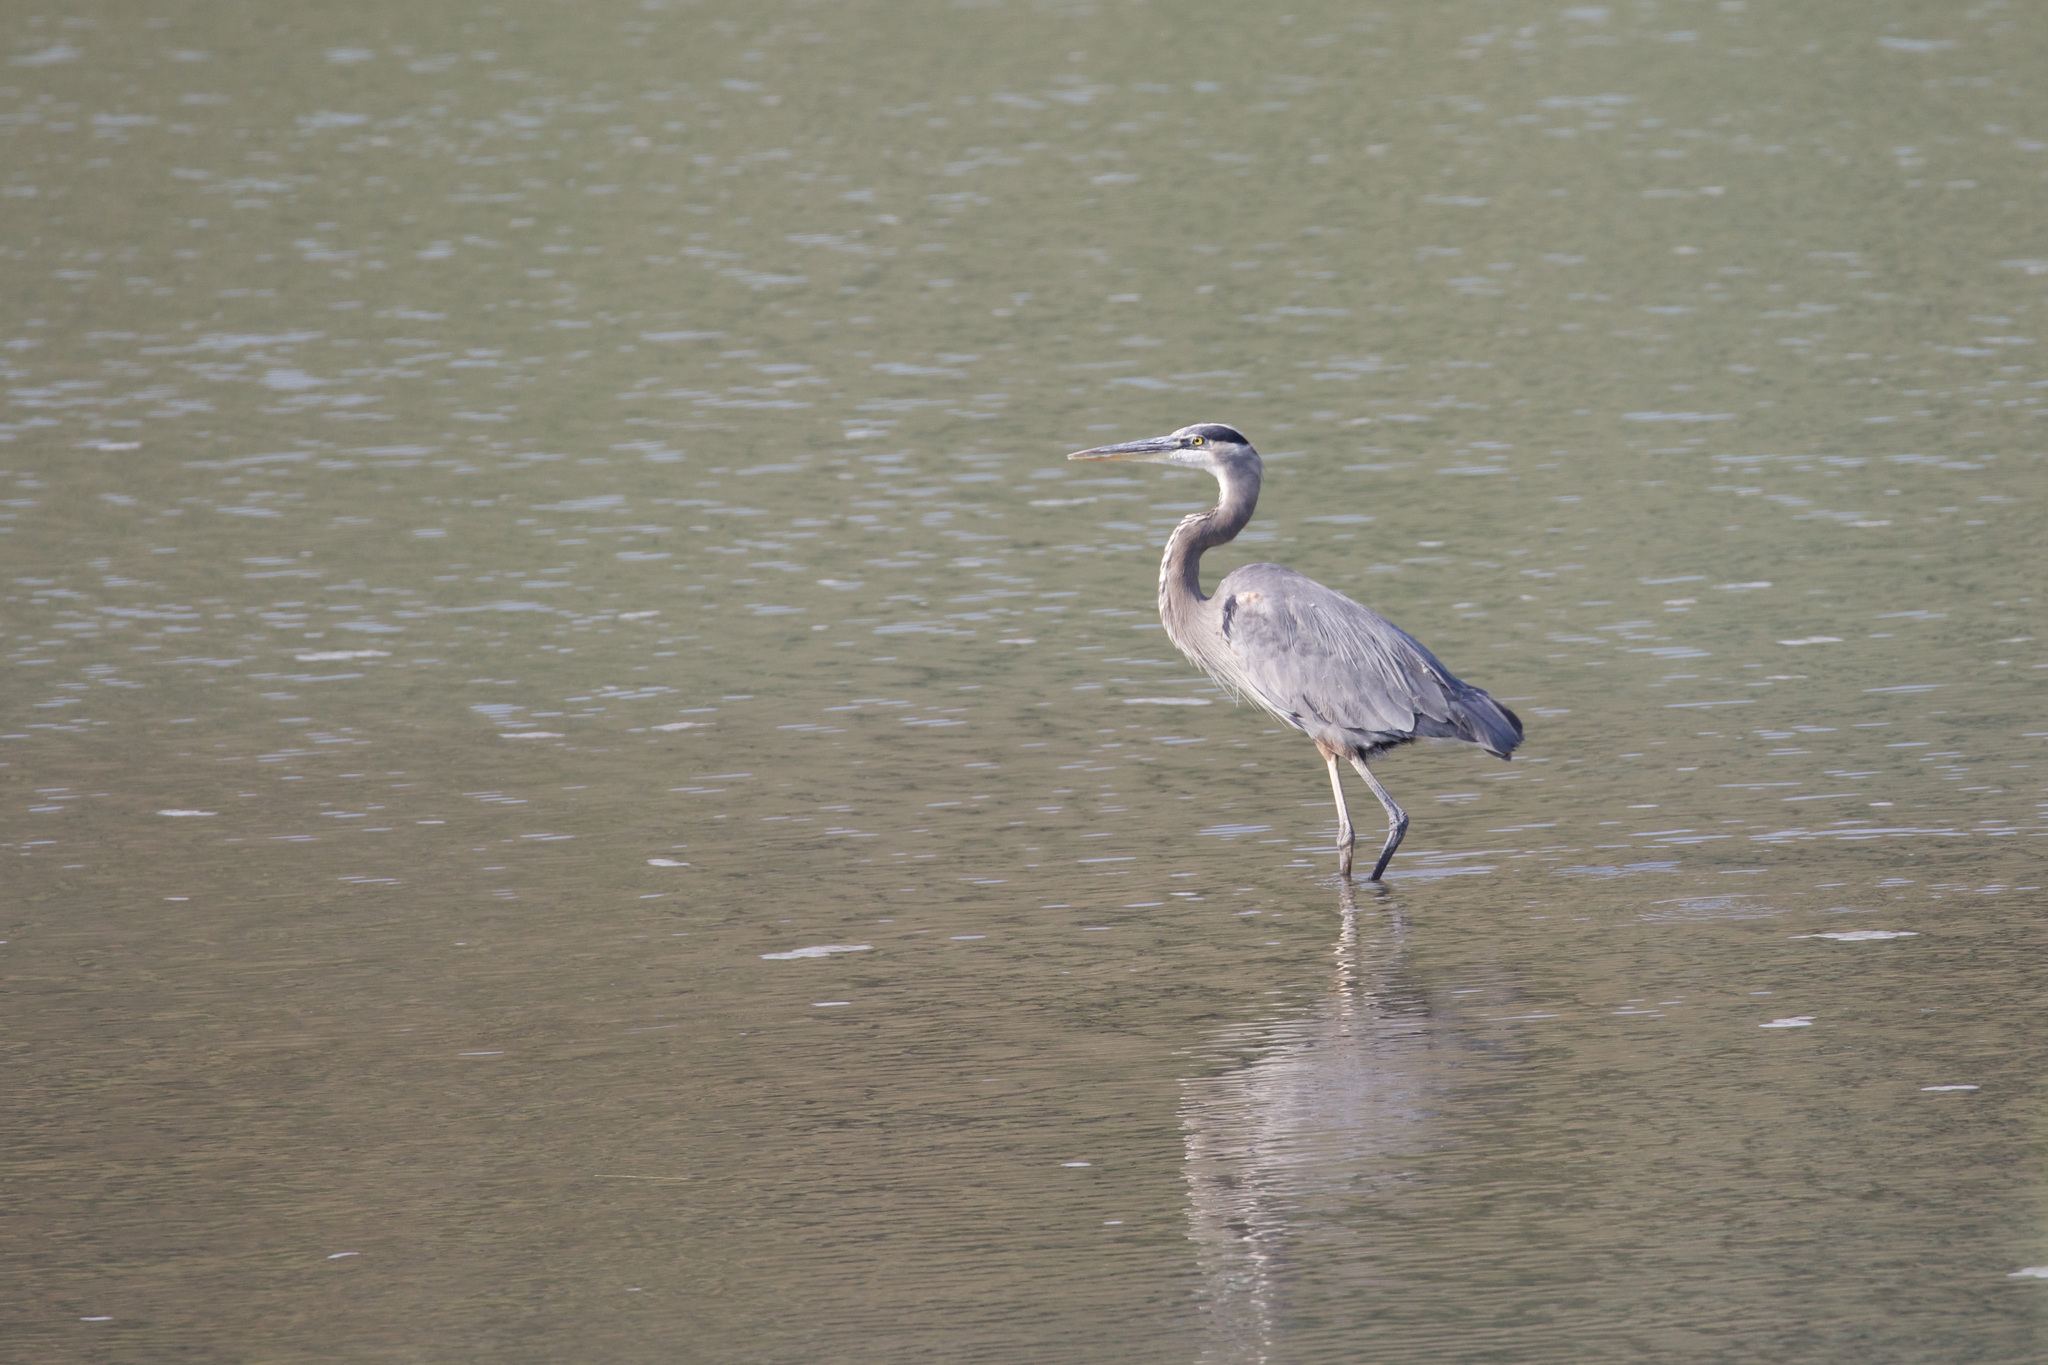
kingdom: Animalia
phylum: Chordata
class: Aves
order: Pelecaniformes
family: Ardeidae
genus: Ardea
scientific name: Ardea herodias
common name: Great blue heron
